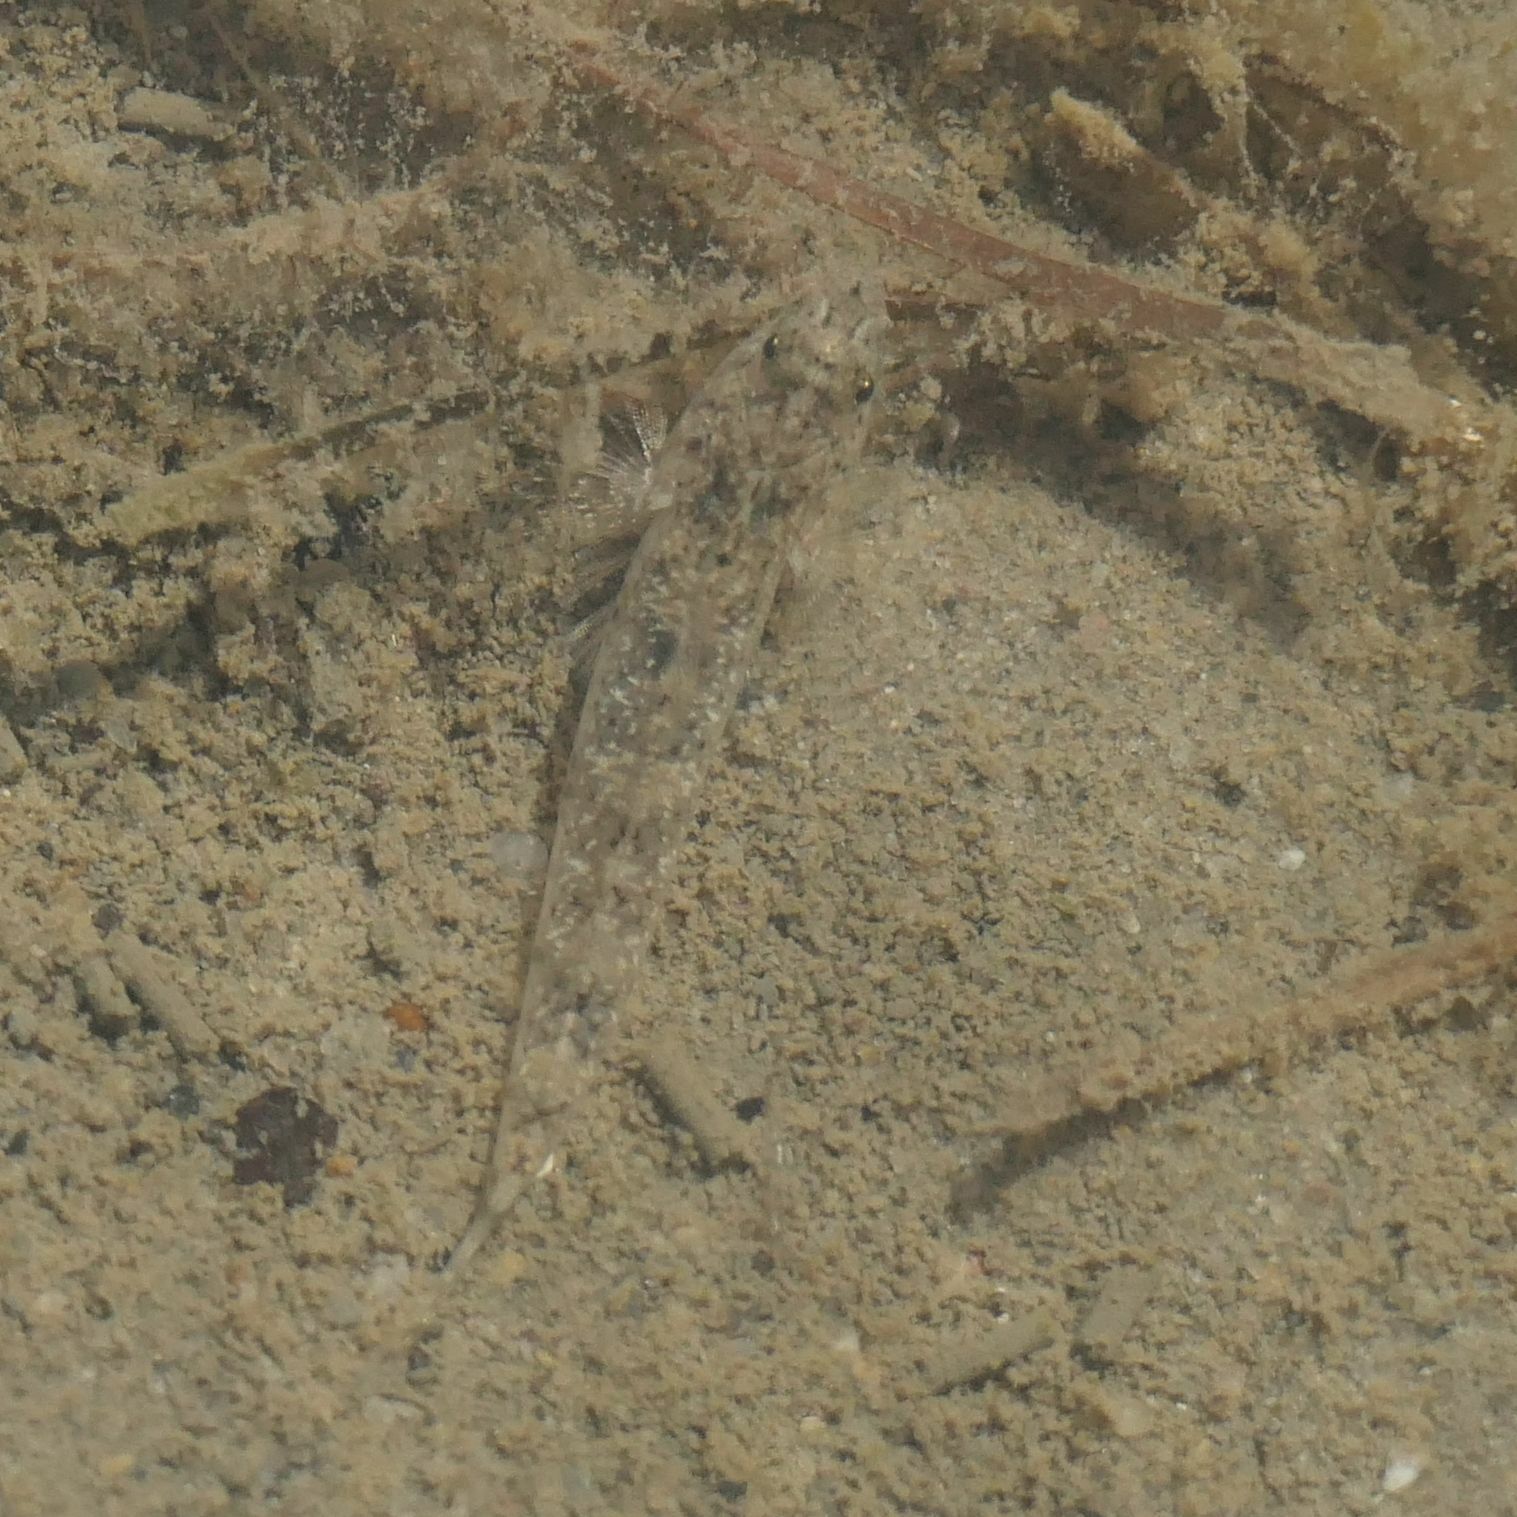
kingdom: Animalia
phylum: Chordata
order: Perciformes
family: Gobiidae
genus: Favonigobius
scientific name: Favonigobius exquisitus
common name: Exquisite sand-goby
